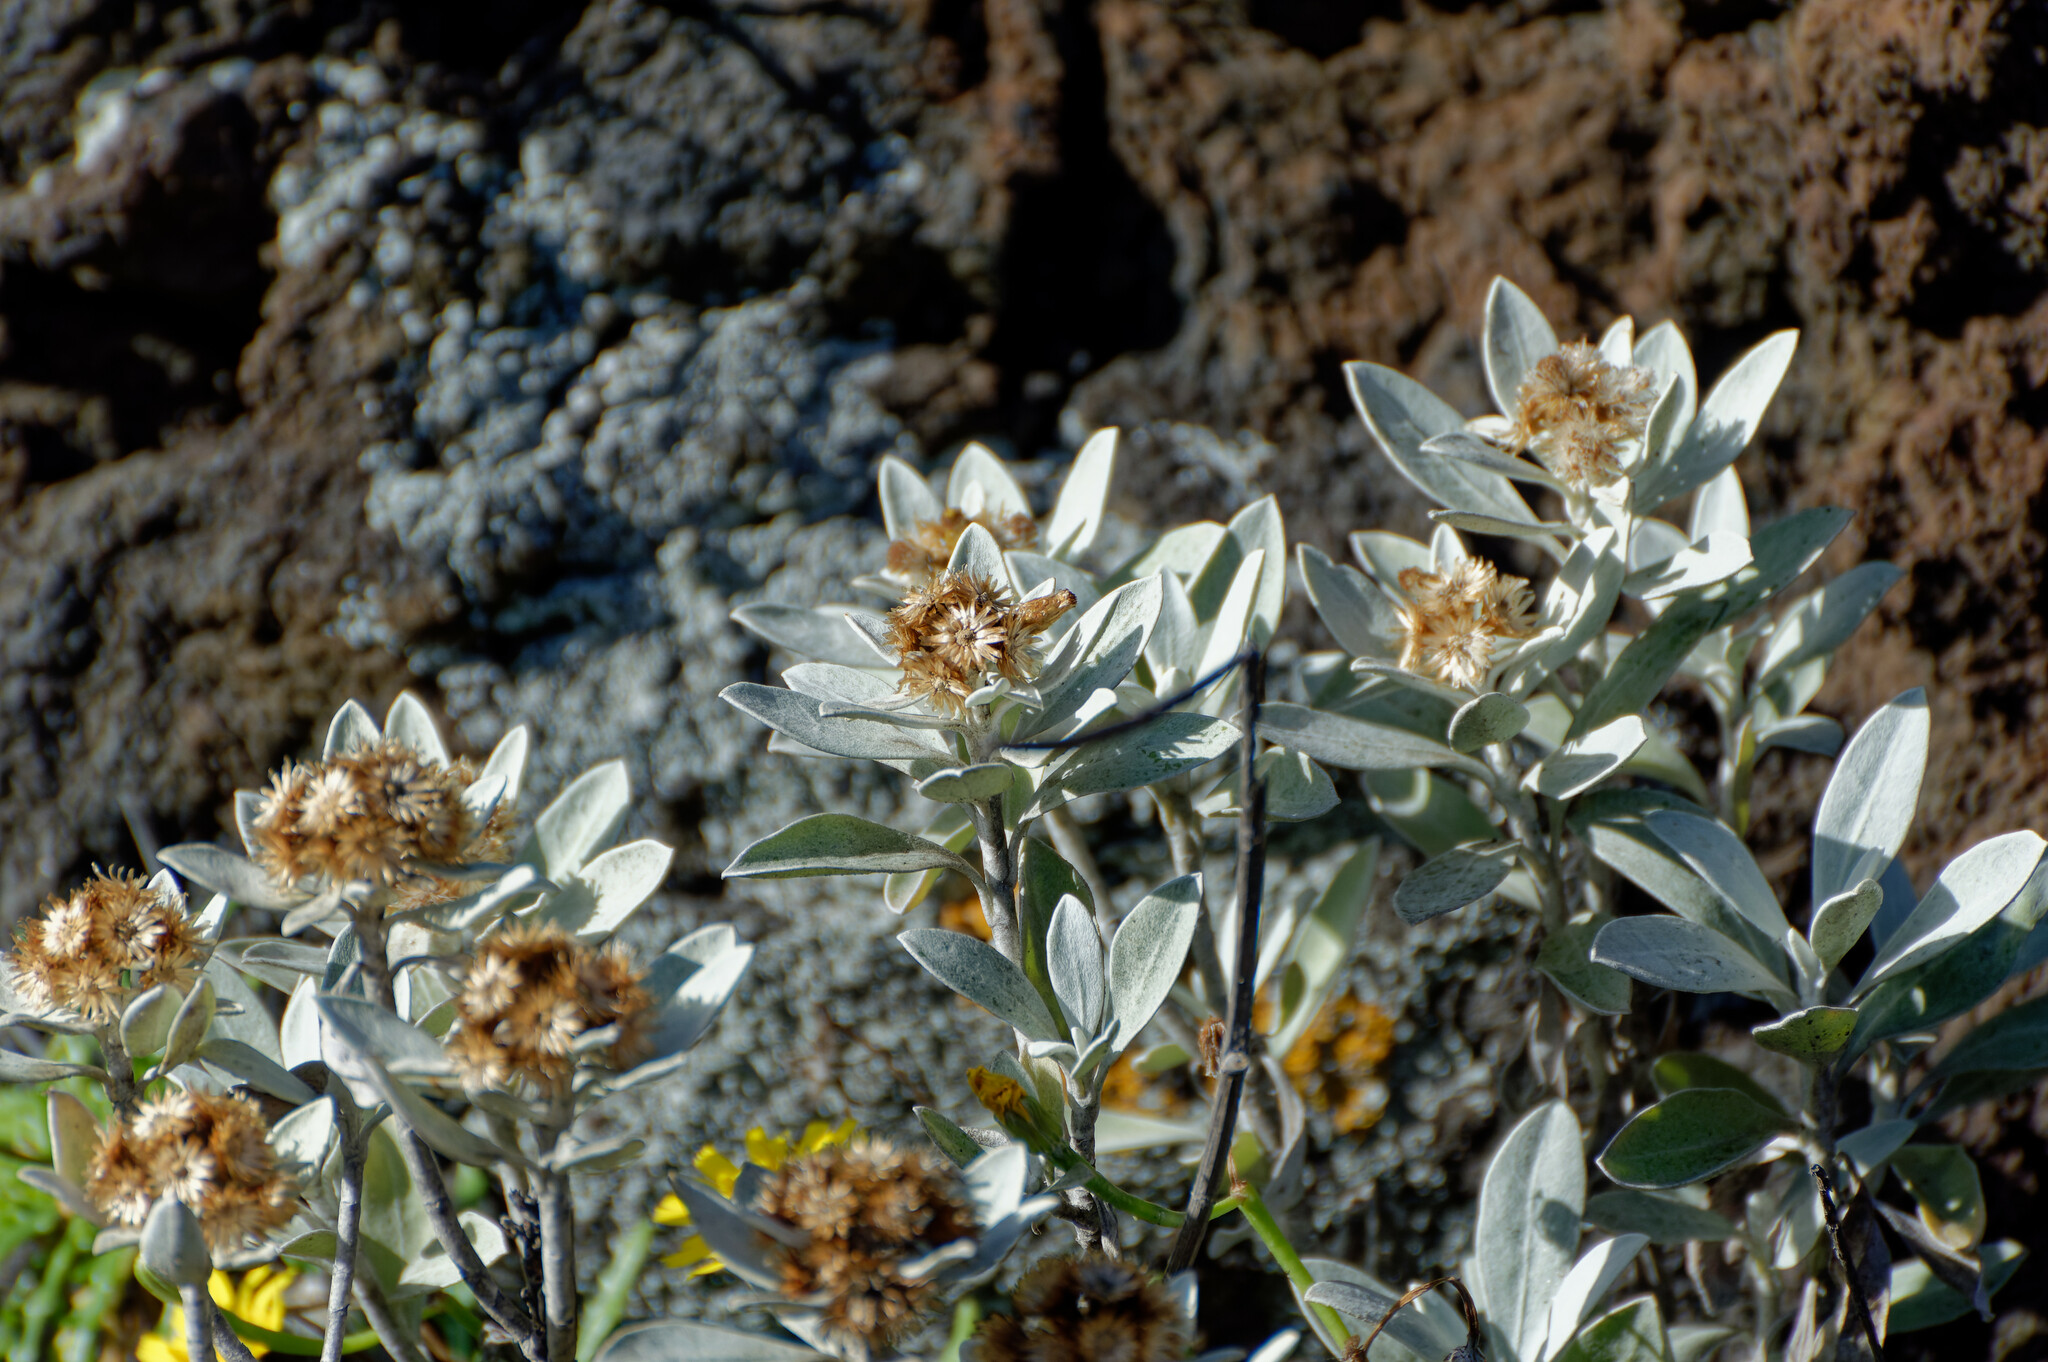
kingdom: Plantae
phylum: Tracheophyta
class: Magnoliopsida
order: Asterales
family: Asteraceae
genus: Helichrysum
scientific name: Helichrysum obconicum
